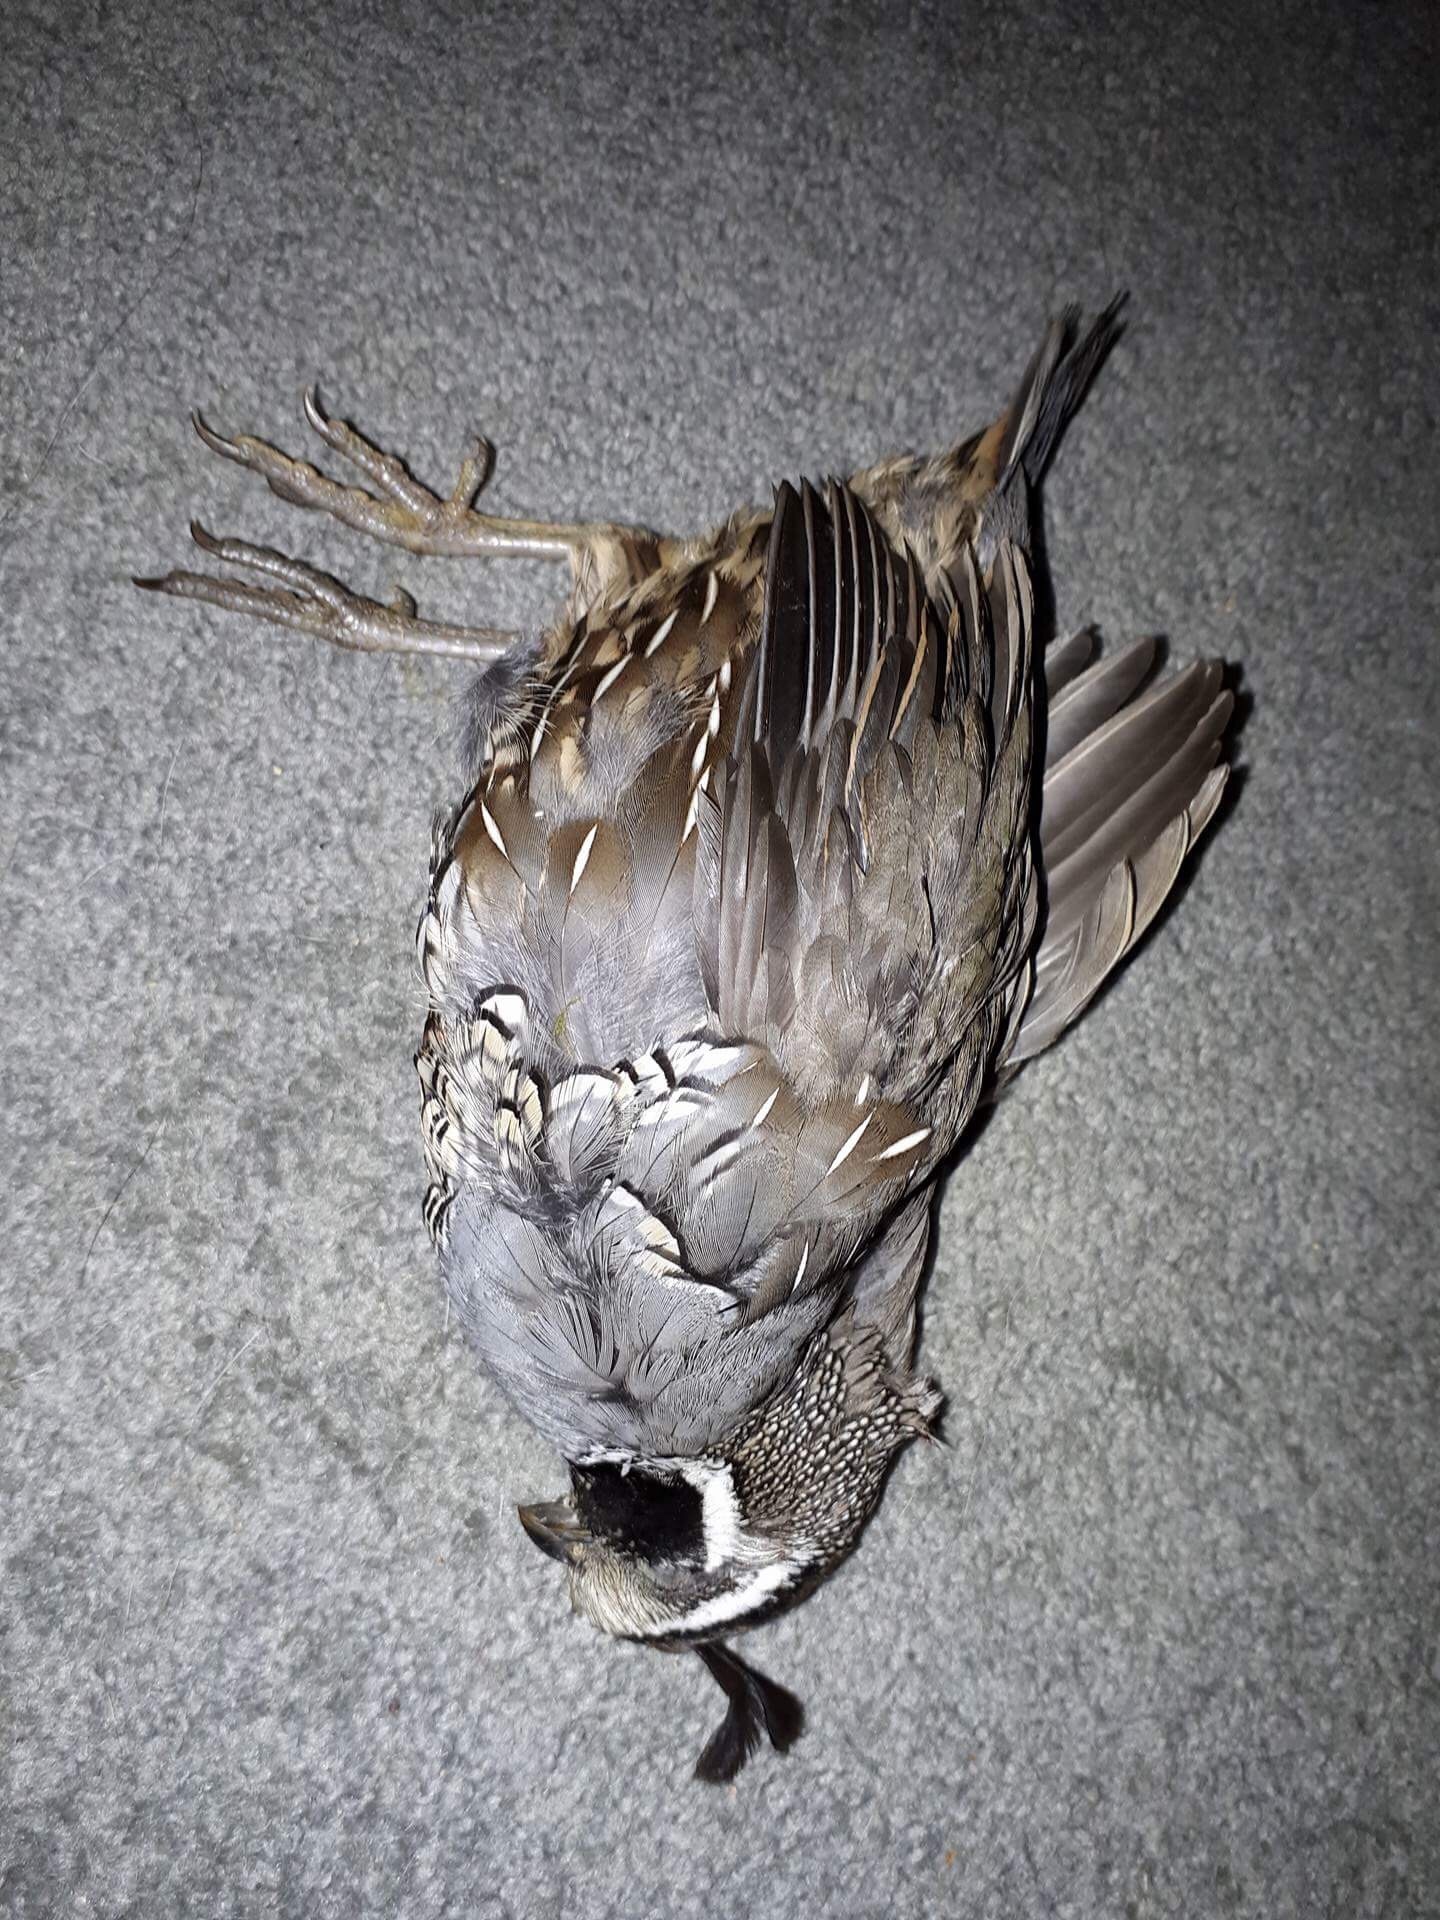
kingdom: Animalia
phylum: Chordata
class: Aves
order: Galliformes
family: Odontophoridae
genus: Callipepla
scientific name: Callipepla californica
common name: California quail
